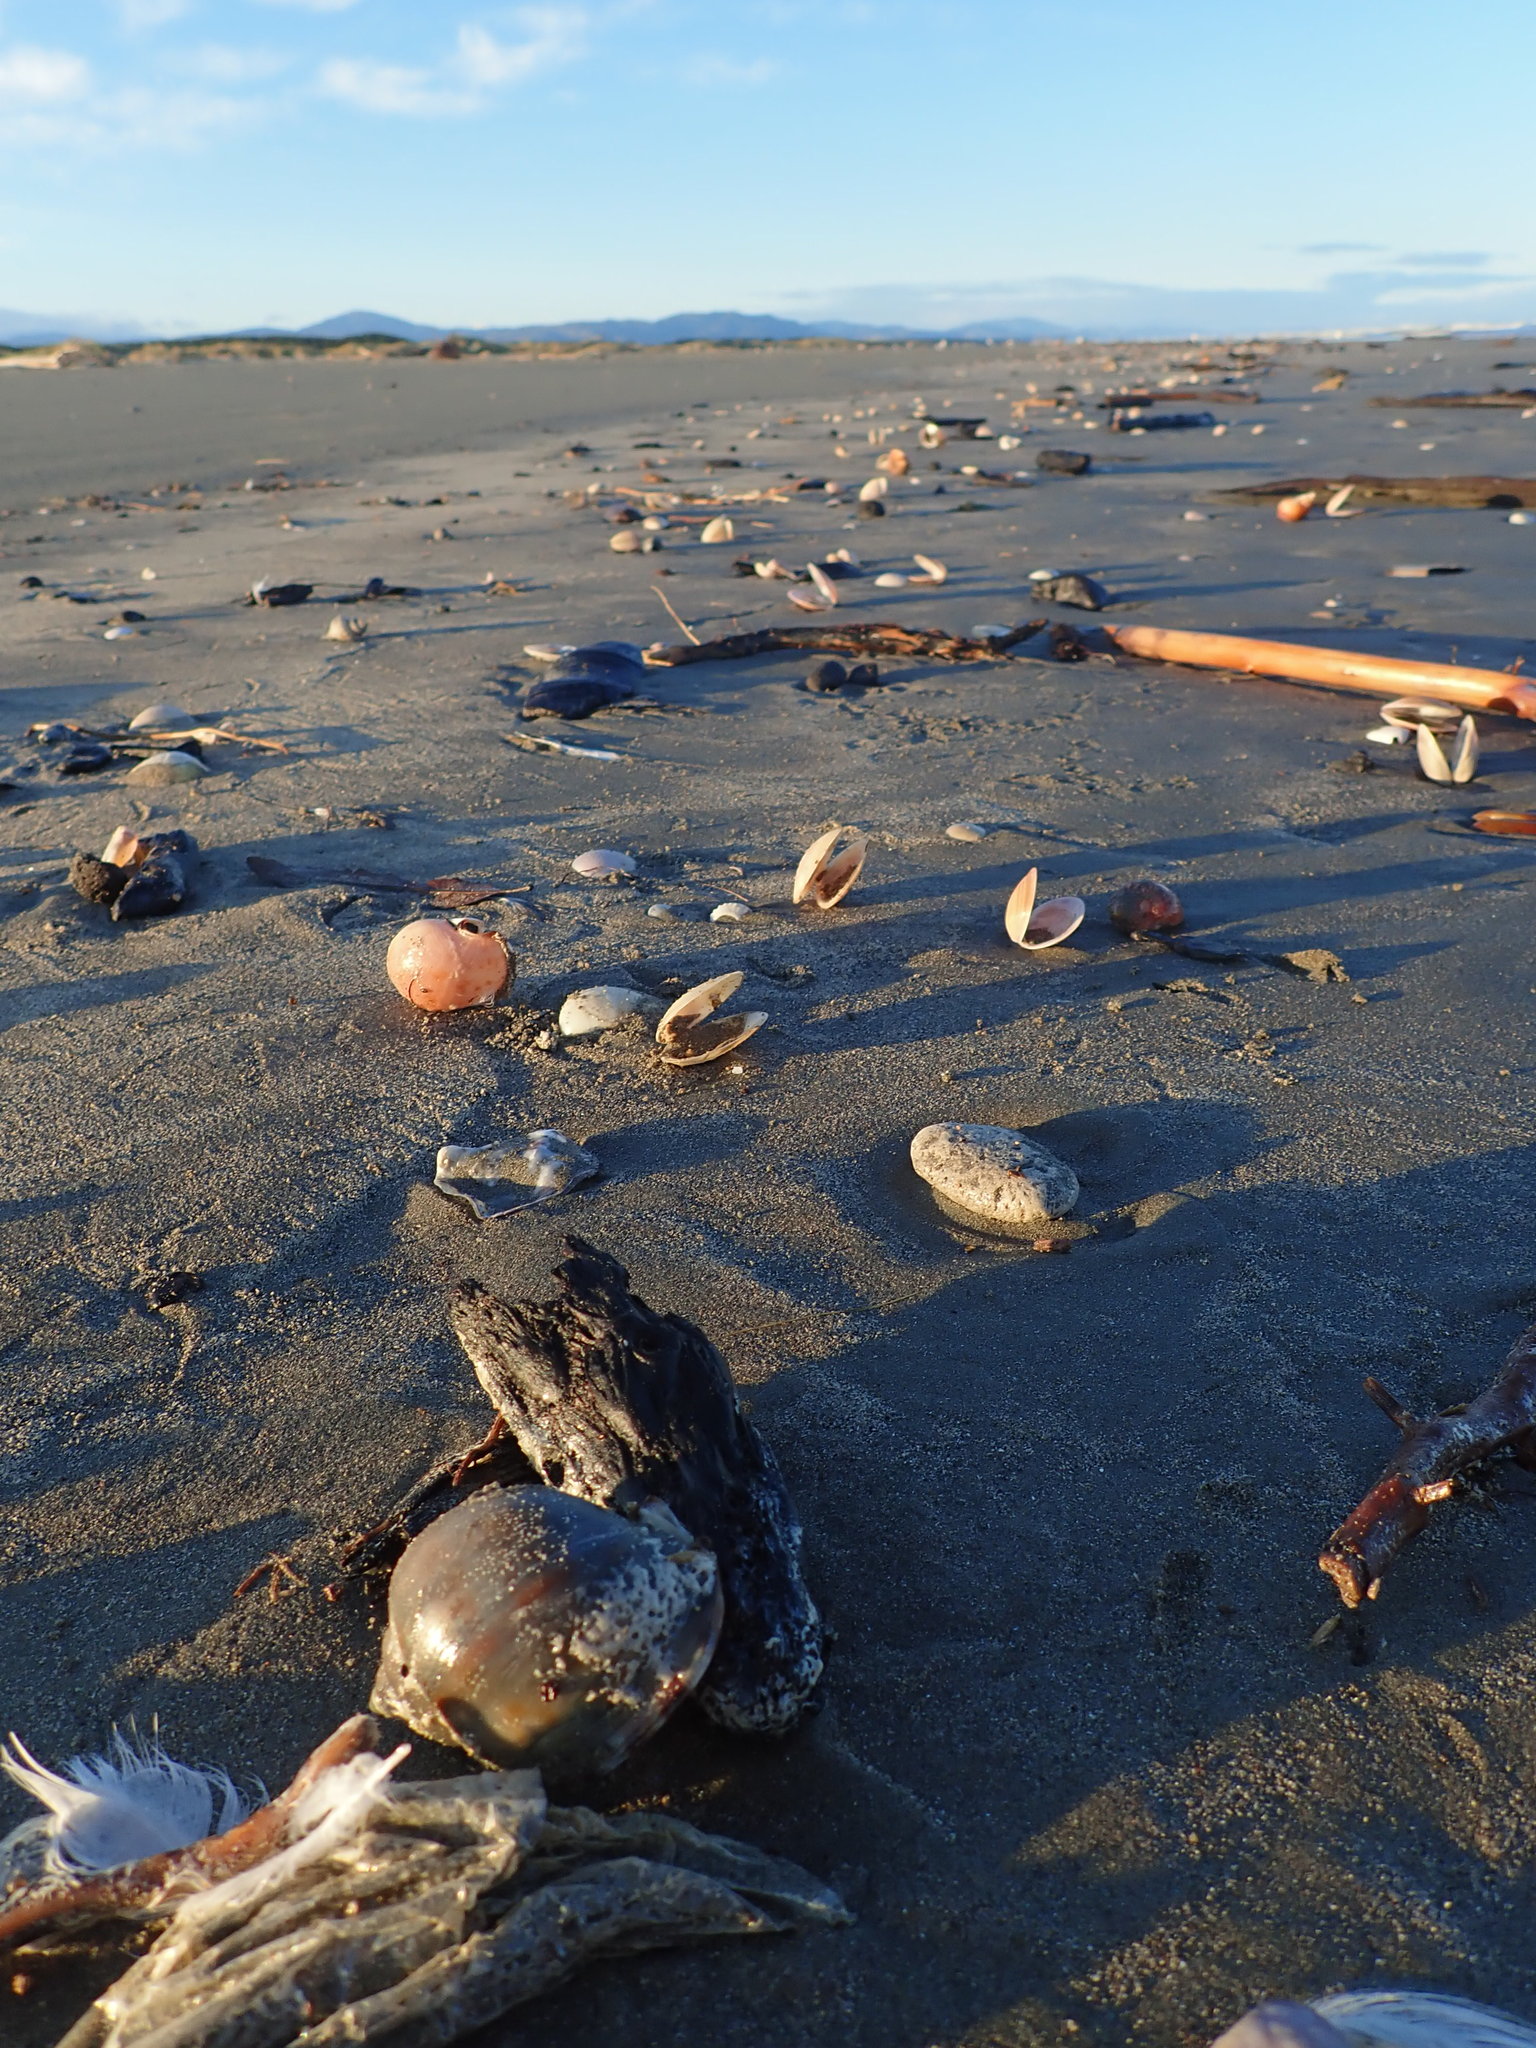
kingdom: Animalia
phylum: Mollusca
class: Gastropoda
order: Littorinimorpha
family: Cassidae
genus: Semicassis
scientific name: Semicassis pyrum
